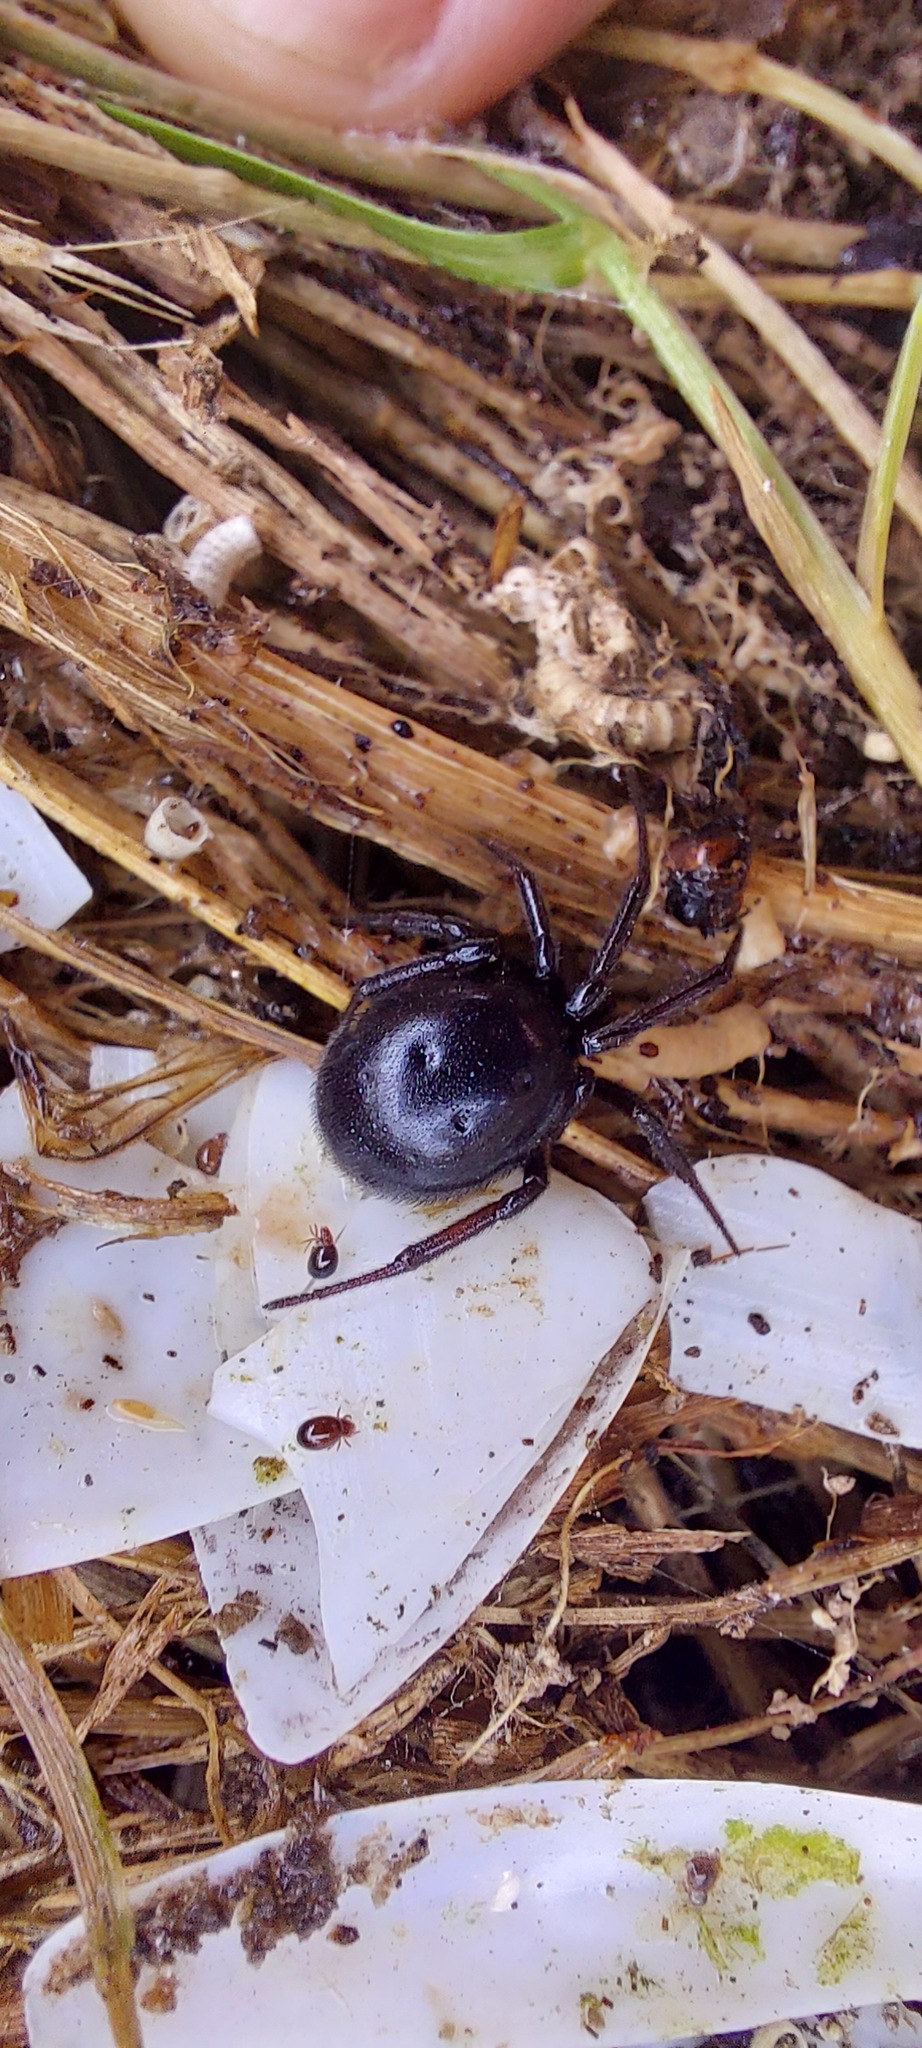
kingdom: Animalia
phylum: Arthropoda
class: Arachnida
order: Araneae
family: Theridiidae
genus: Steatoda
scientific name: Steatoda capensis
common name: Cobweb weaver
